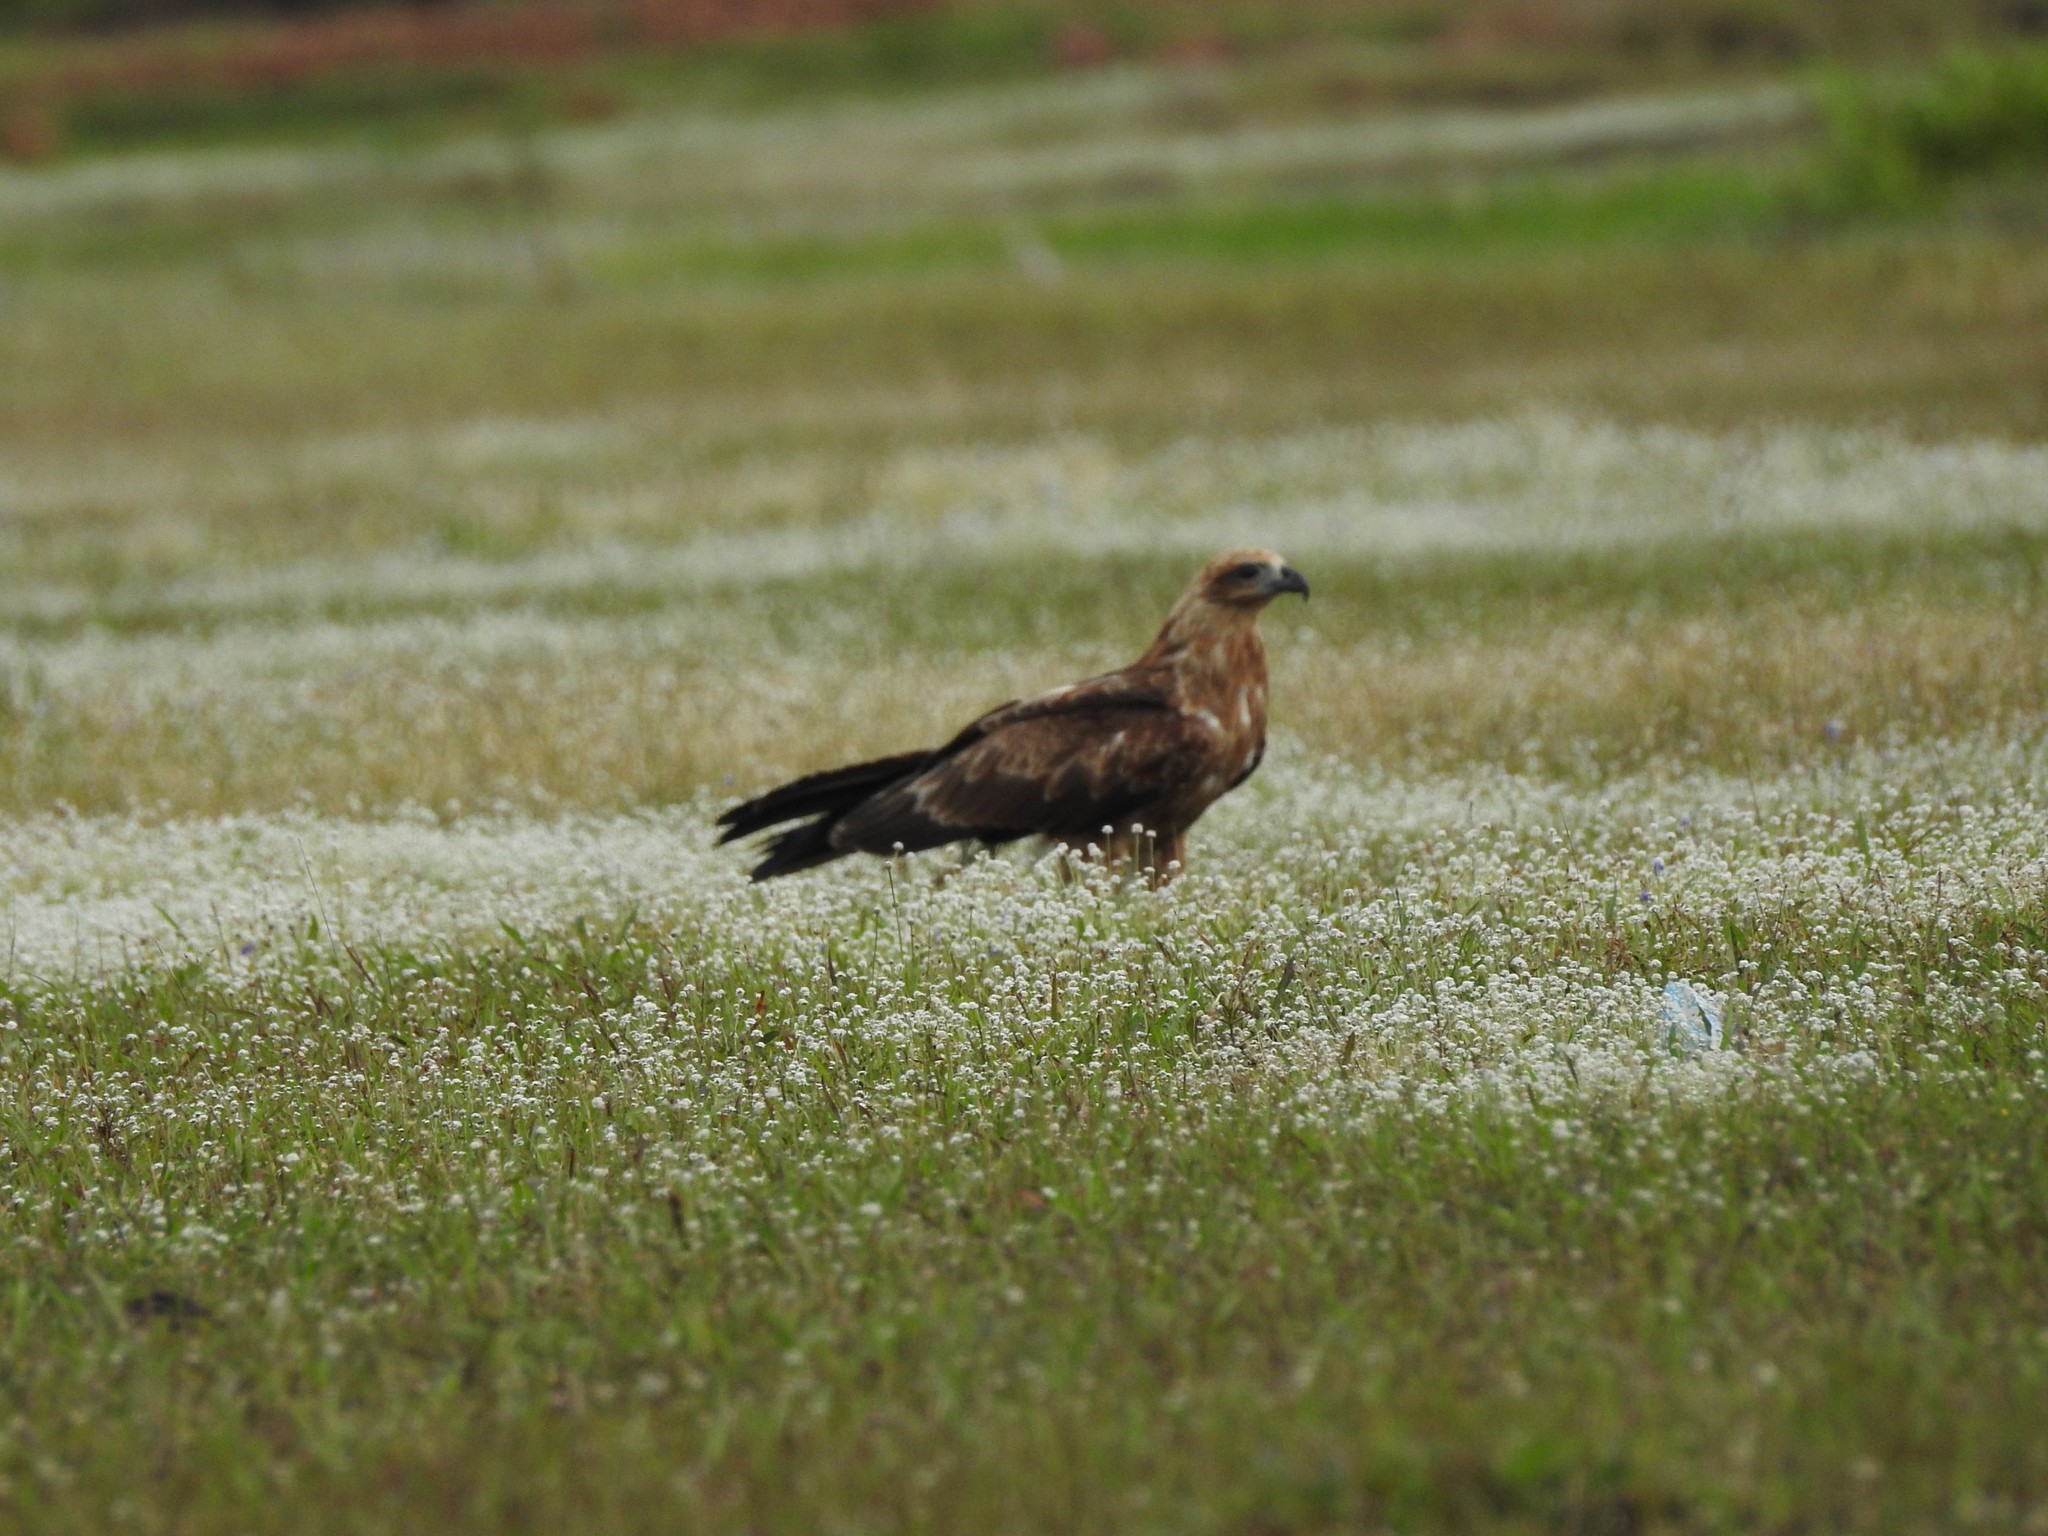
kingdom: Animalia
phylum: Chordata
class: Aves
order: Accipitriformes
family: Accipitridae
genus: Milvus
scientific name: Milvus migrans
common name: Black kite
